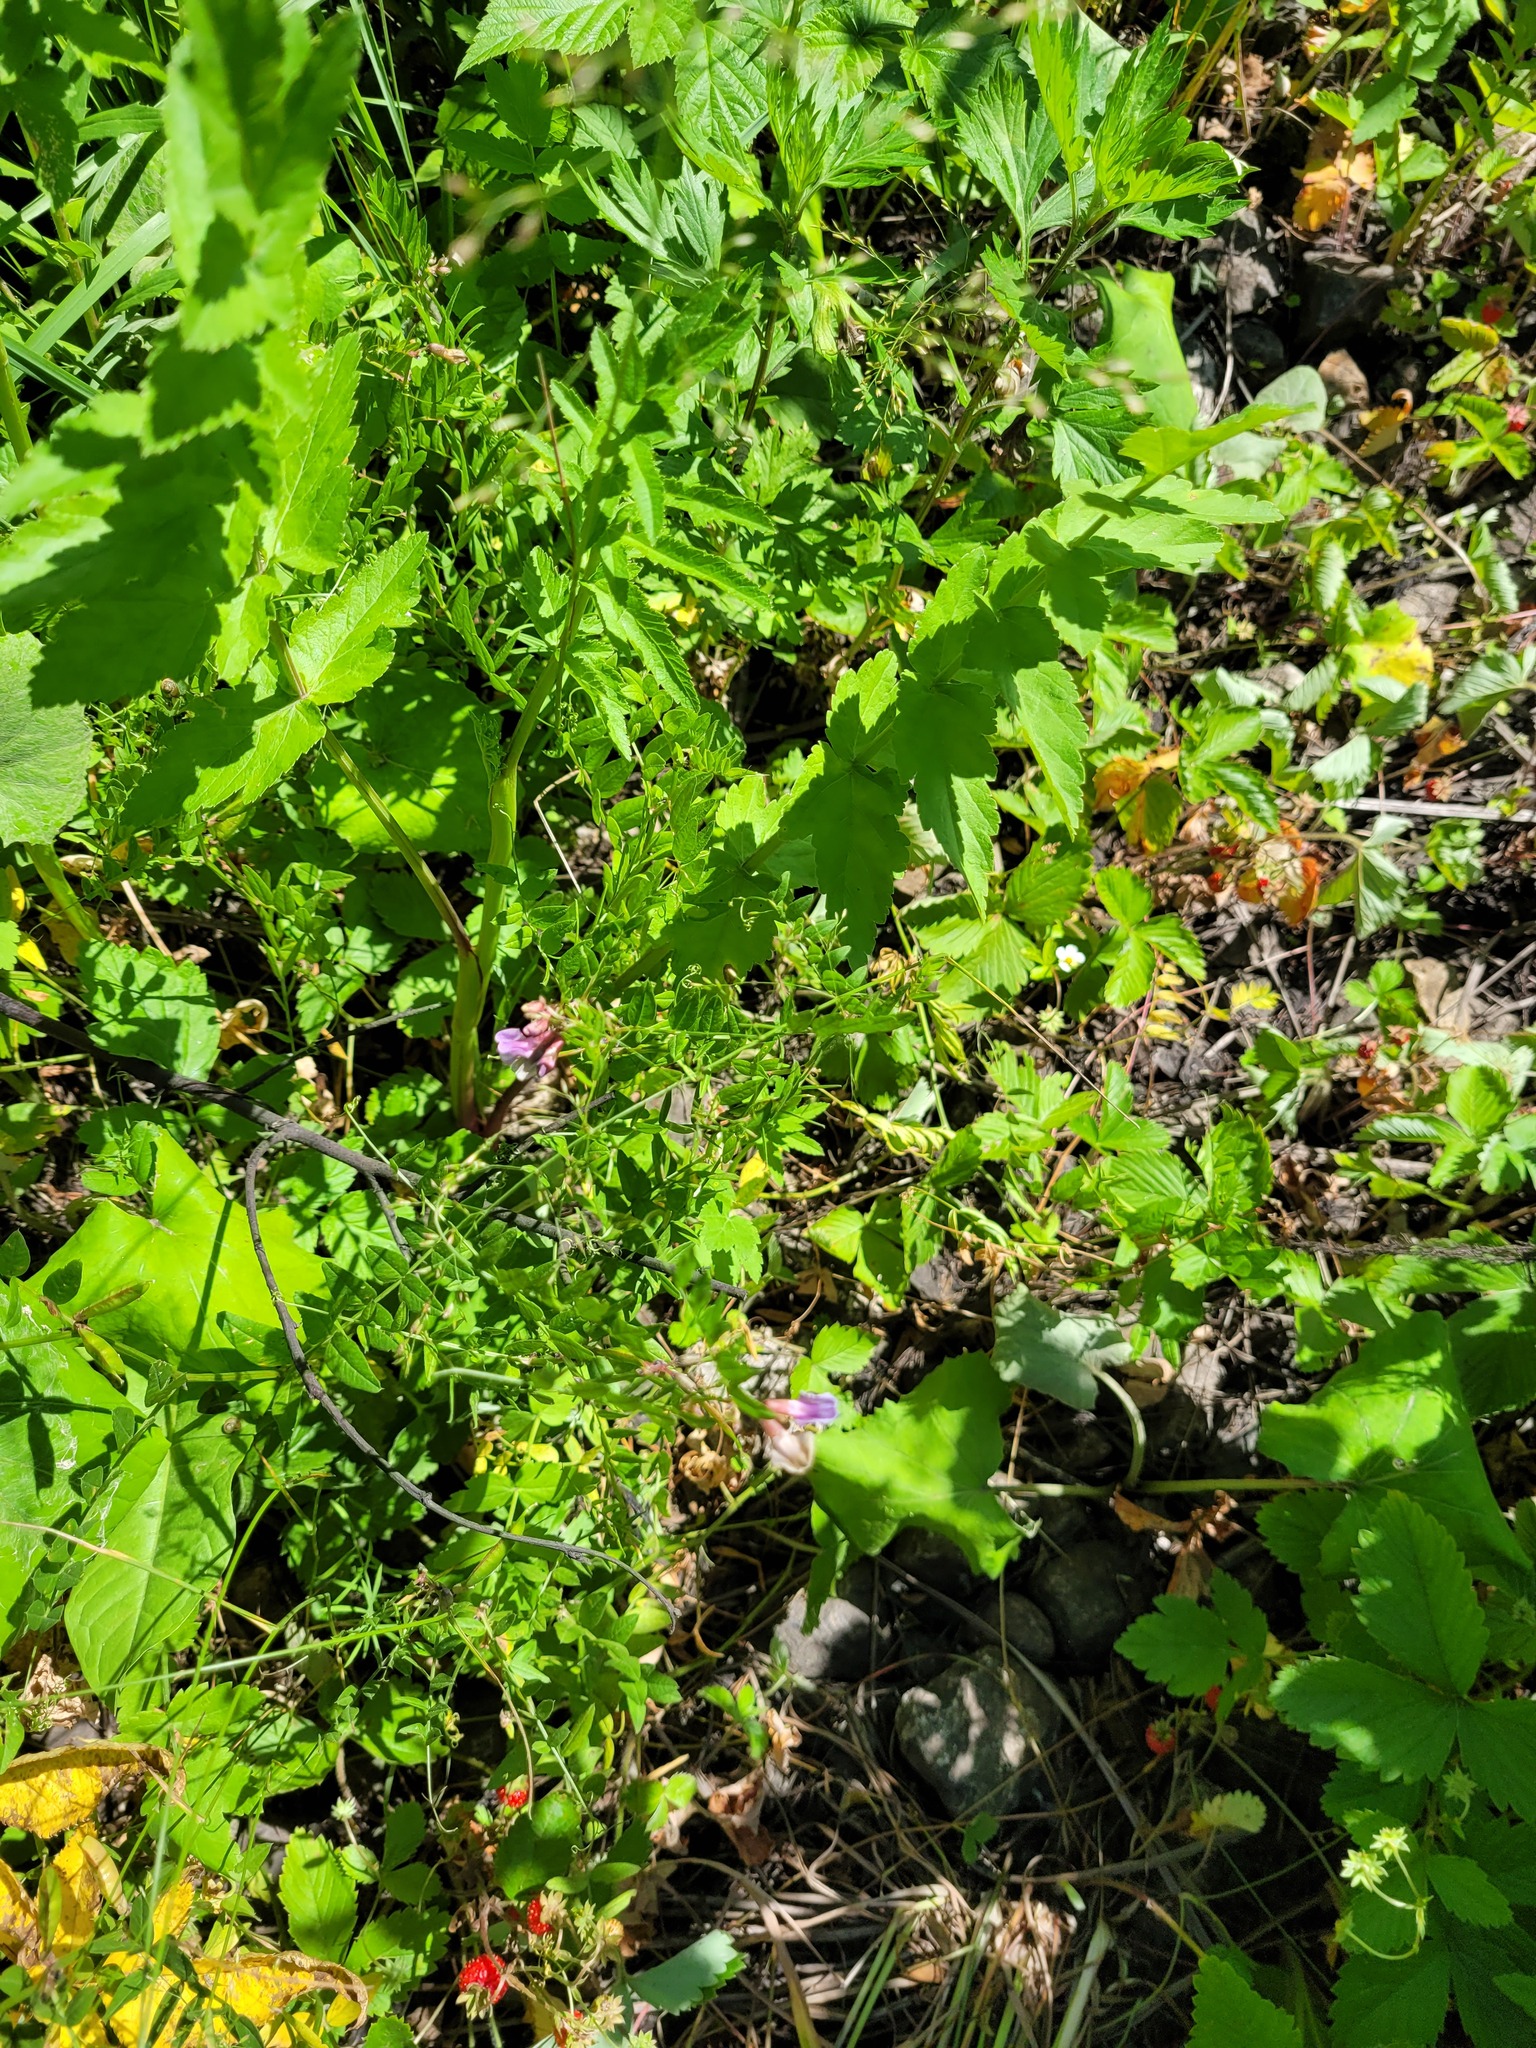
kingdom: Plantae
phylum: Tracheophyta
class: Magnoliopsida
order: Fabales
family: Fabaceae
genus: Vicia
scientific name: Vicia sepium
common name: Bush vetch
